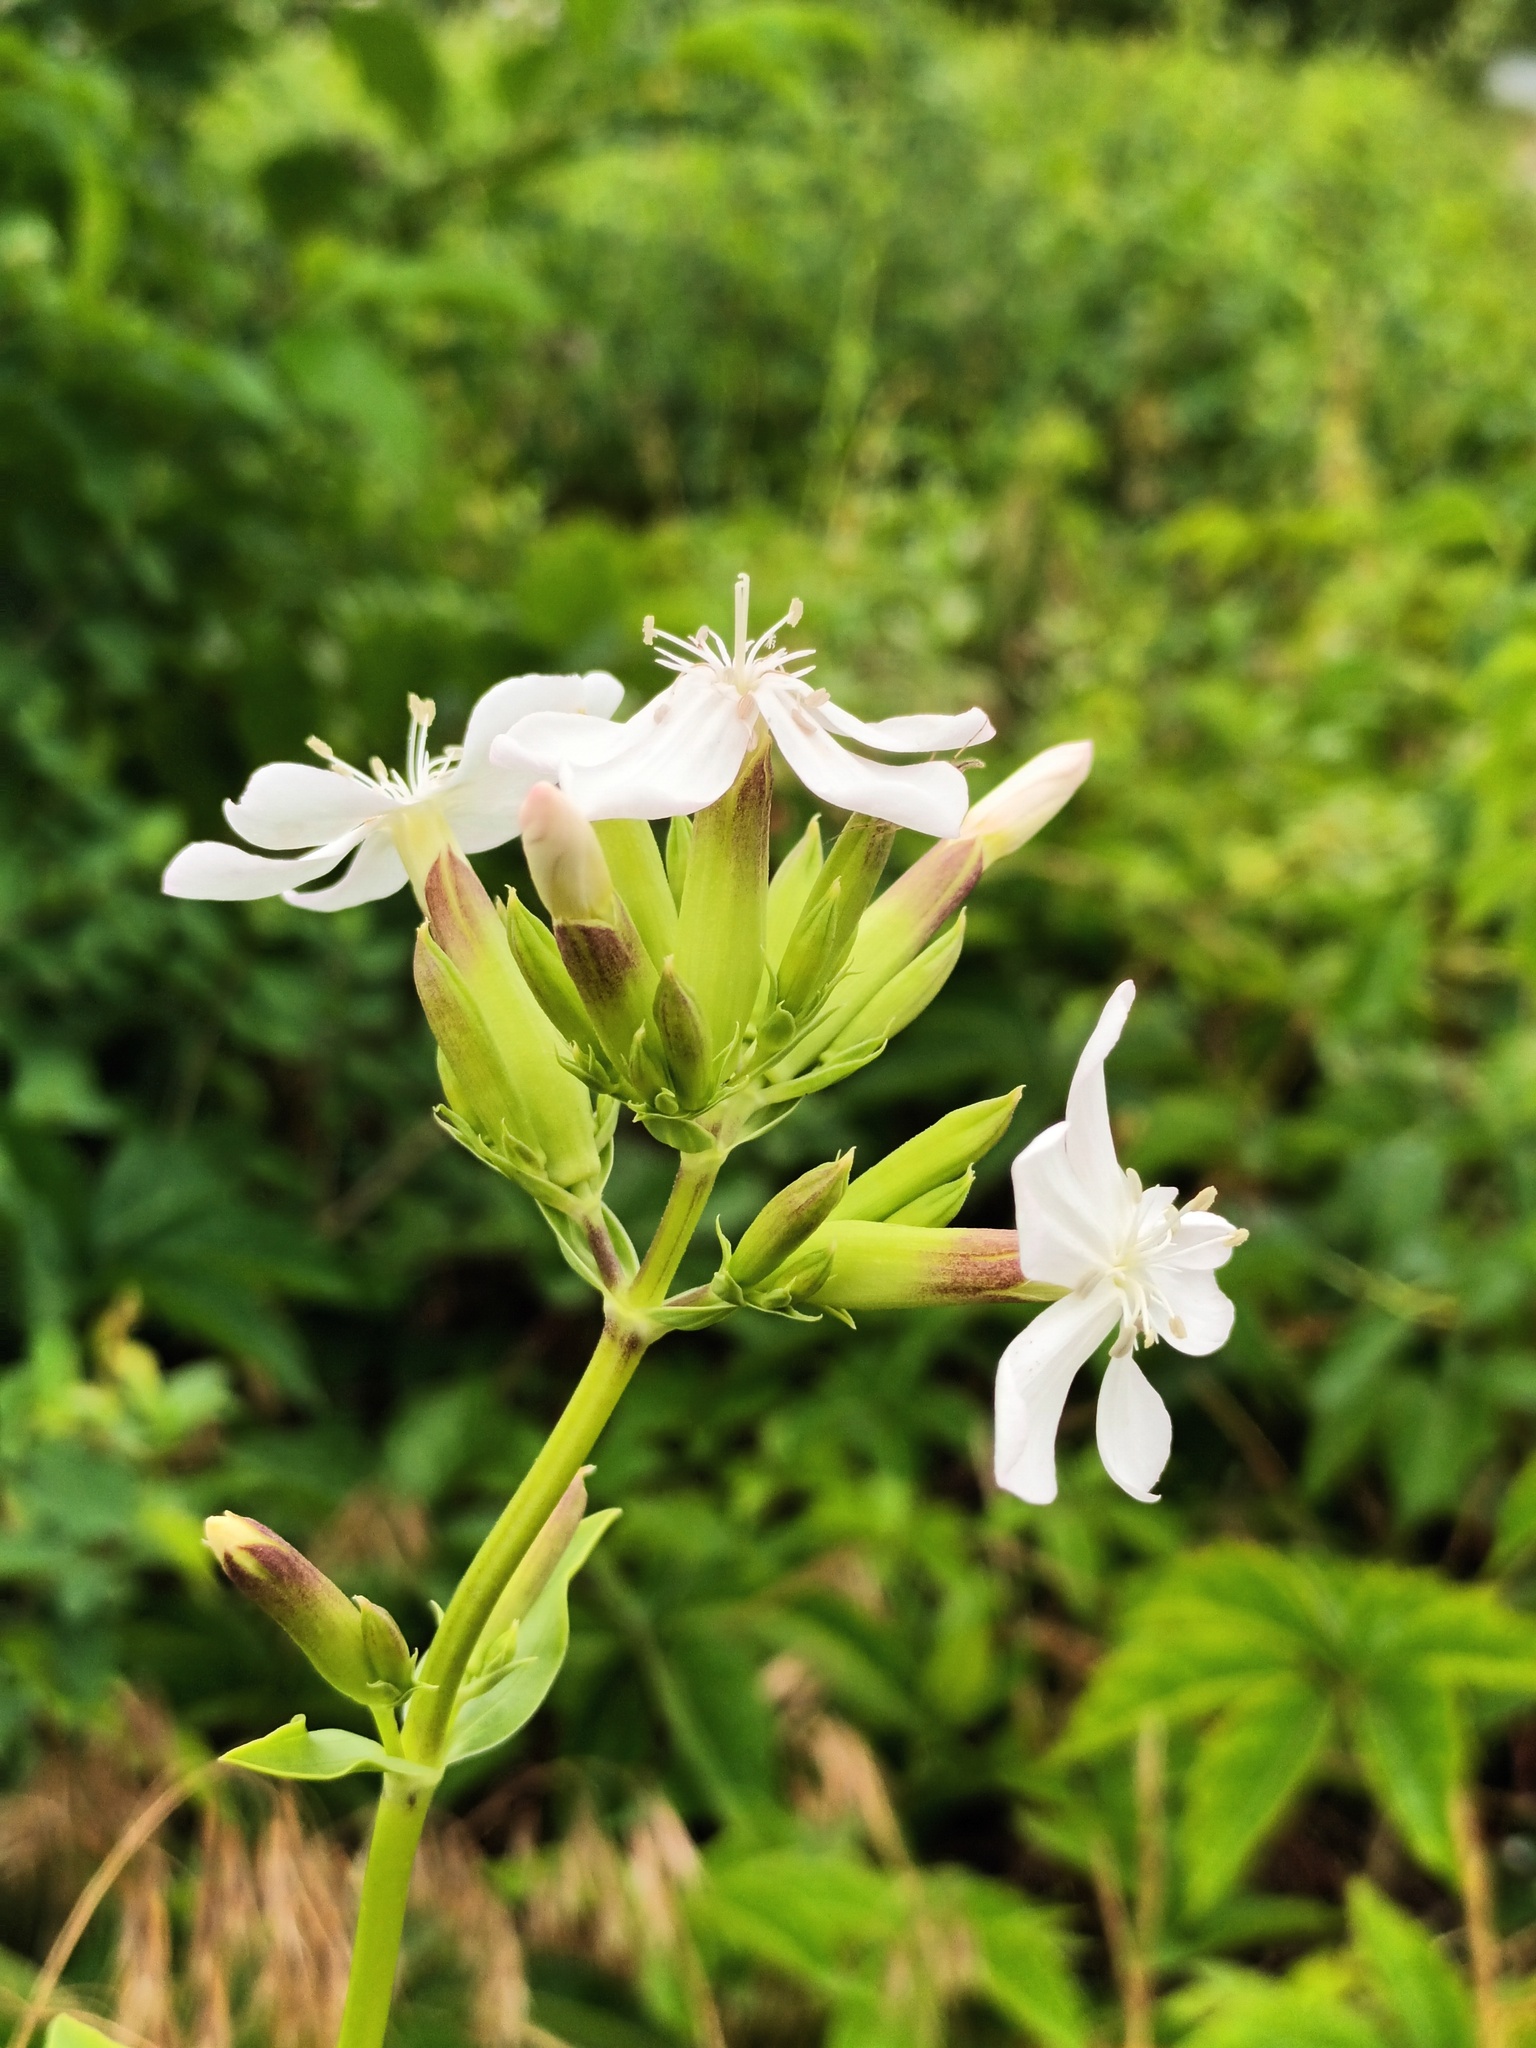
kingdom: Plantae
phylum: Tracheophyta
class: Magnoliopsida
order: Caryophyllales
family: Caryophyllaceae
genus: Saponaria
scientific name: Saponaria officinalis
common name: Soapwort
